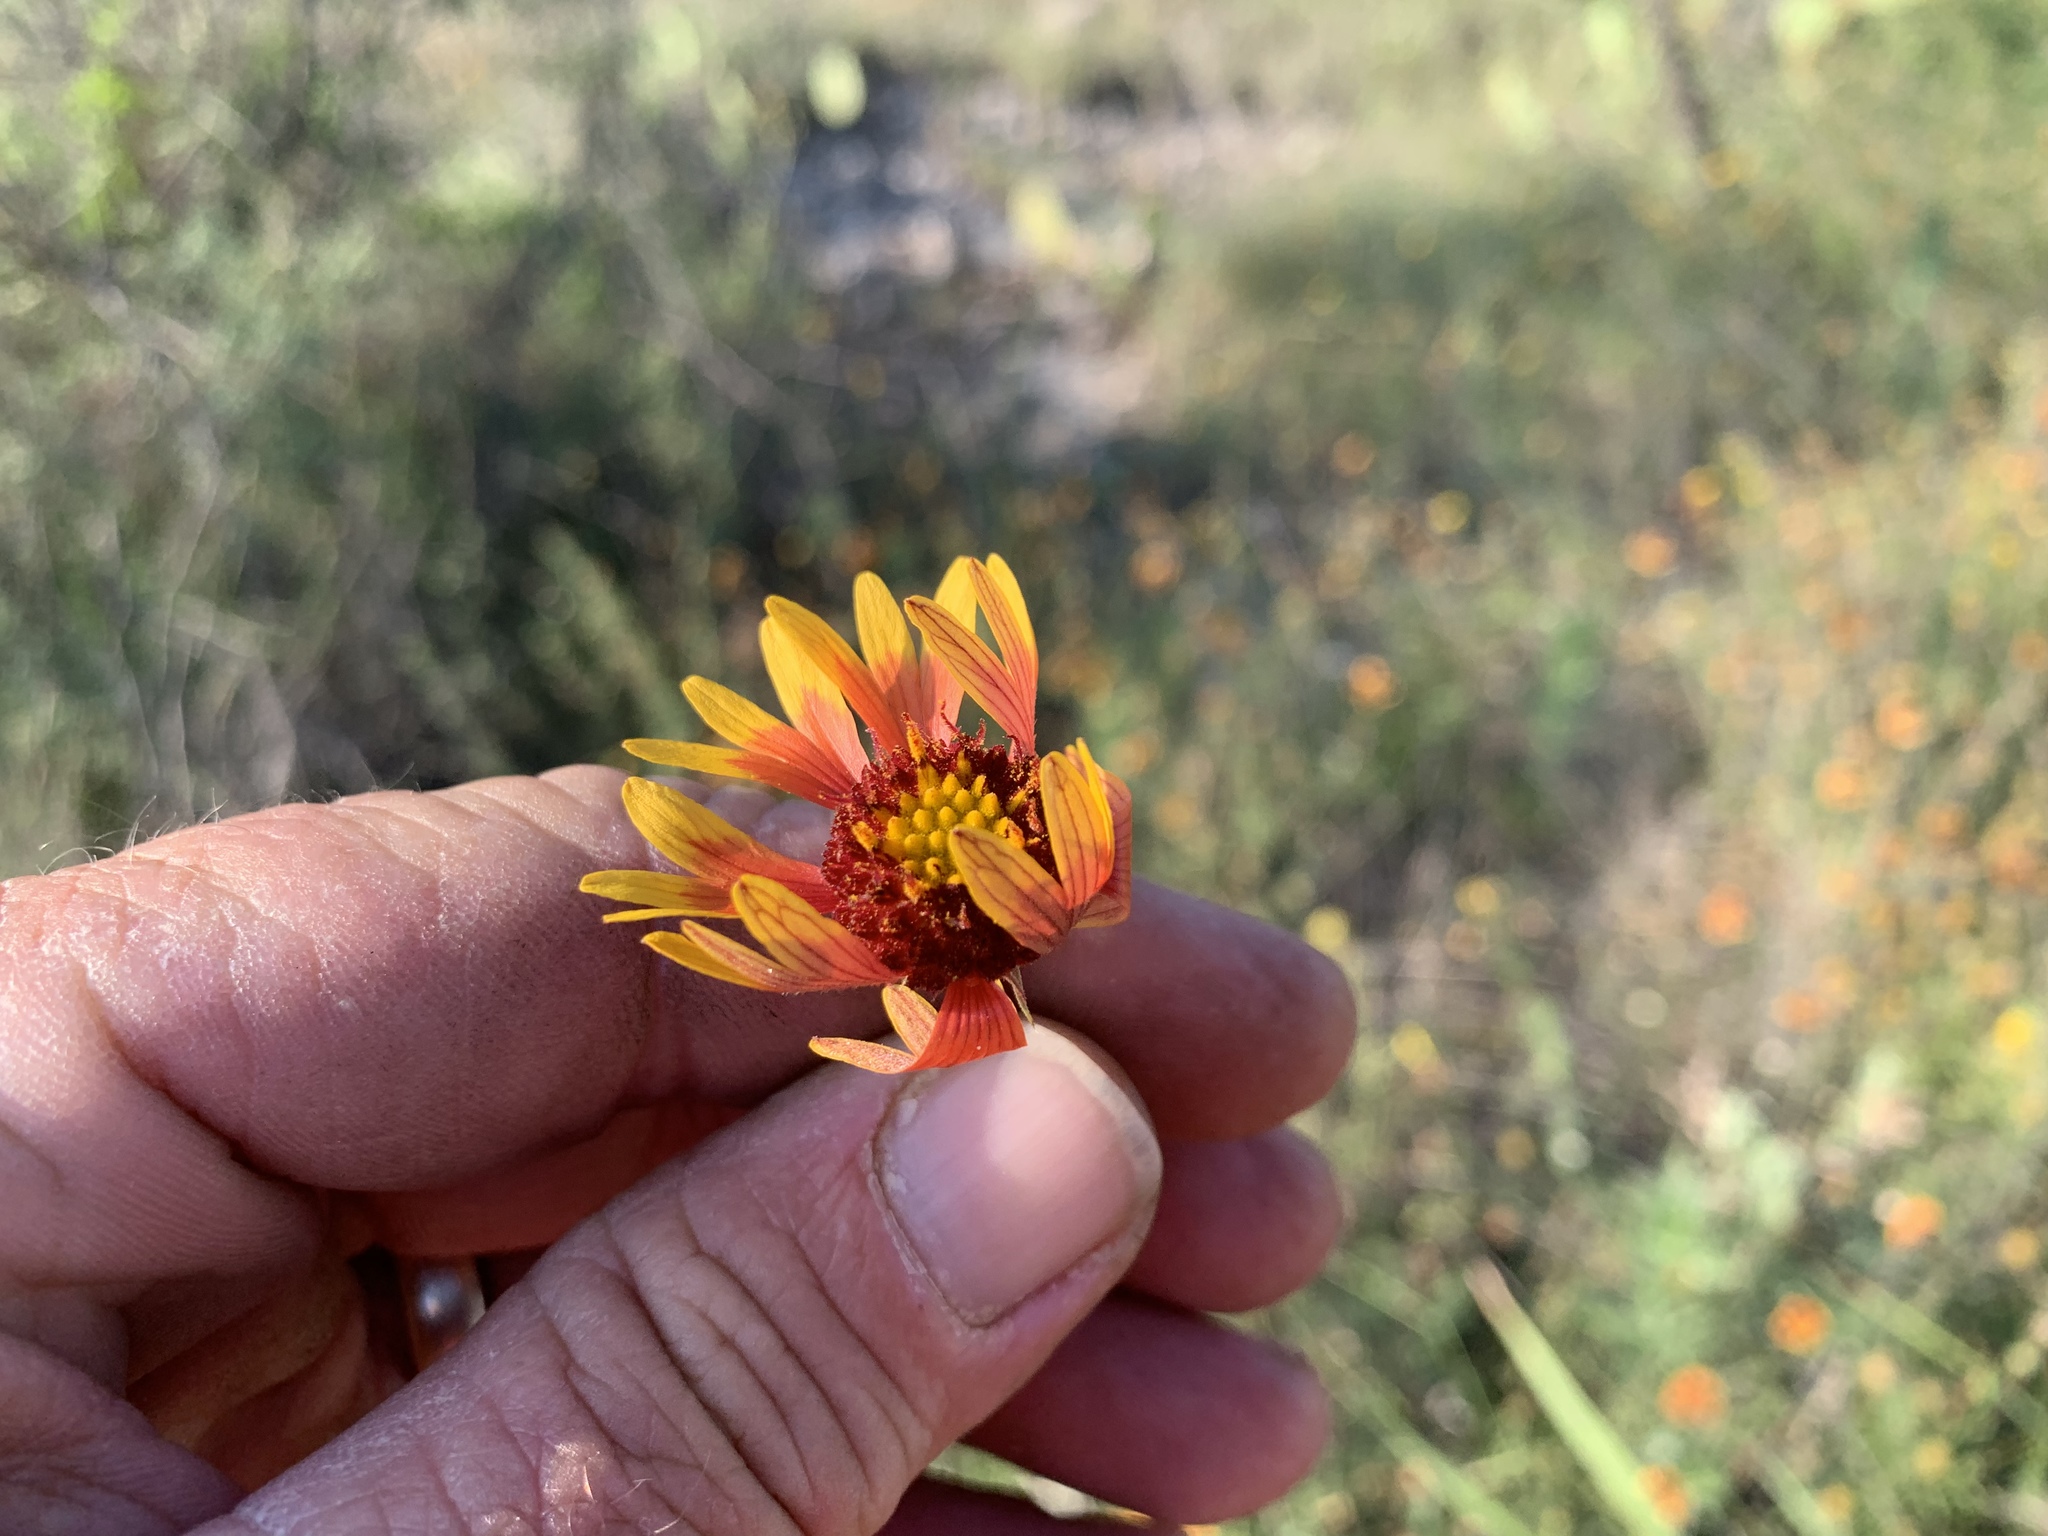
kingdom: Plantae
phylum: Tracheophyta
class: Magnoliopsida
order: Asterales
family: Asteraceae
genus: Gaillardia
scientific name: Gaillardia pulchella
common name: Firewheel
